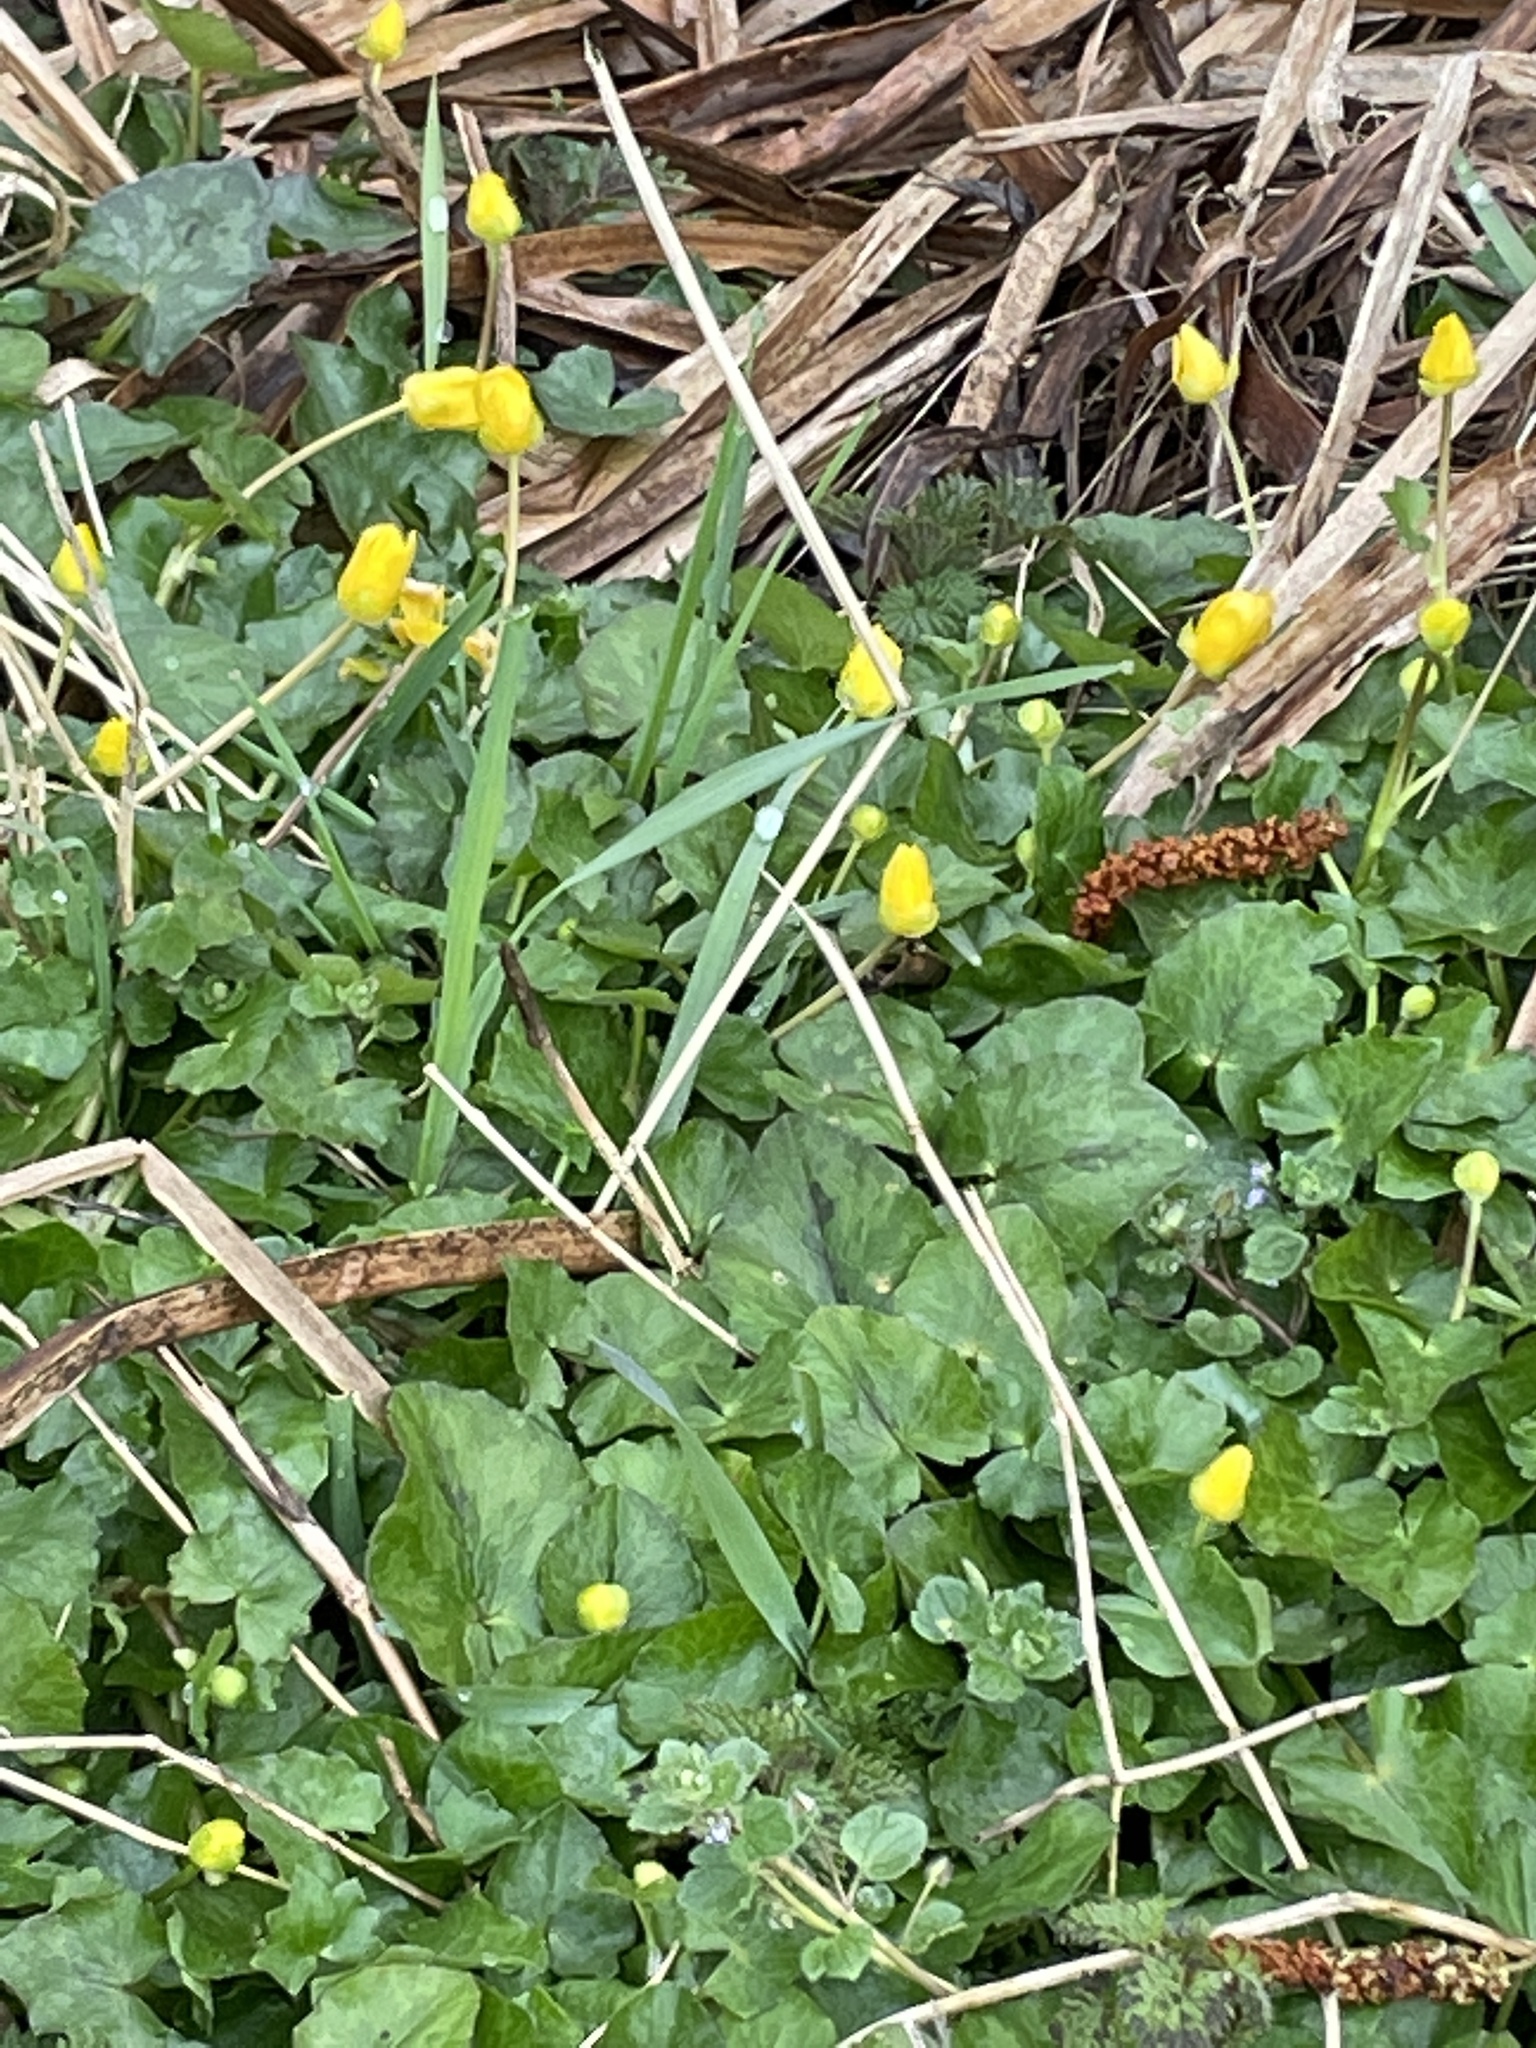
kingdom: Plantae
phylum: Tracheophyta
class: Magnoliopsida
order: Ranunculales
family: Ranunculaceae
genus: Ficaria
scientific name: Ficaria verna
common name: Lesser celandine
